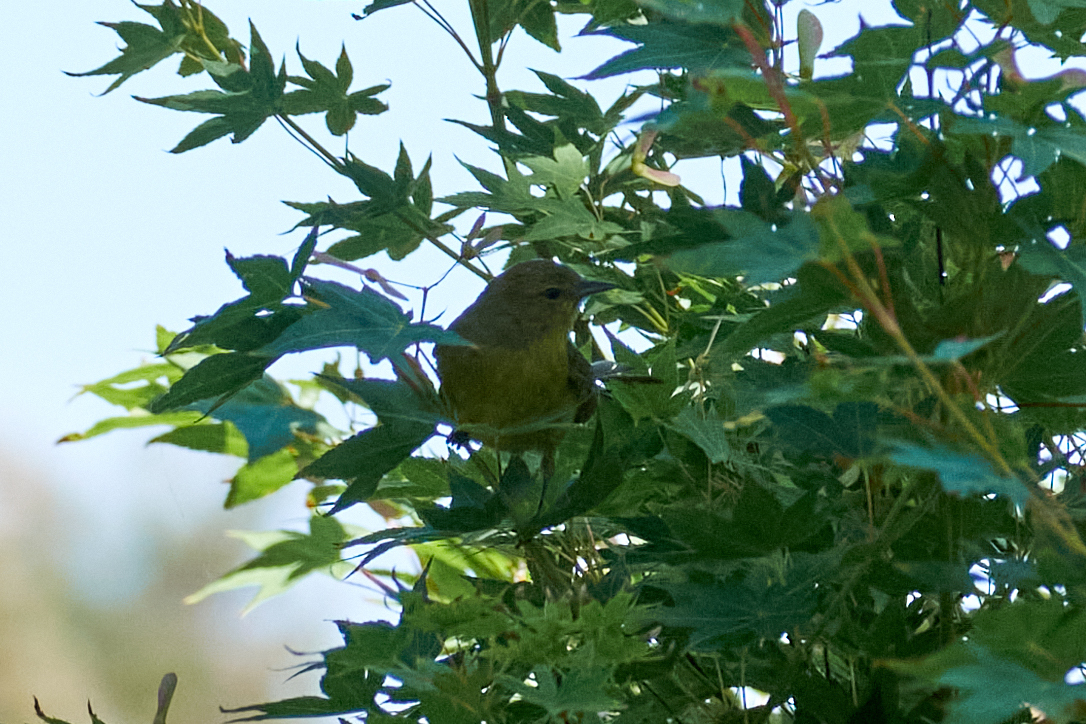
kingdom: Animalia
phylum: Chordata
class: Aves
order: Passeriformes
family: Parulidae
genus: Leiothlypis
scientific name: Leiothlypis celata
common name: Orange-crowned warbler
